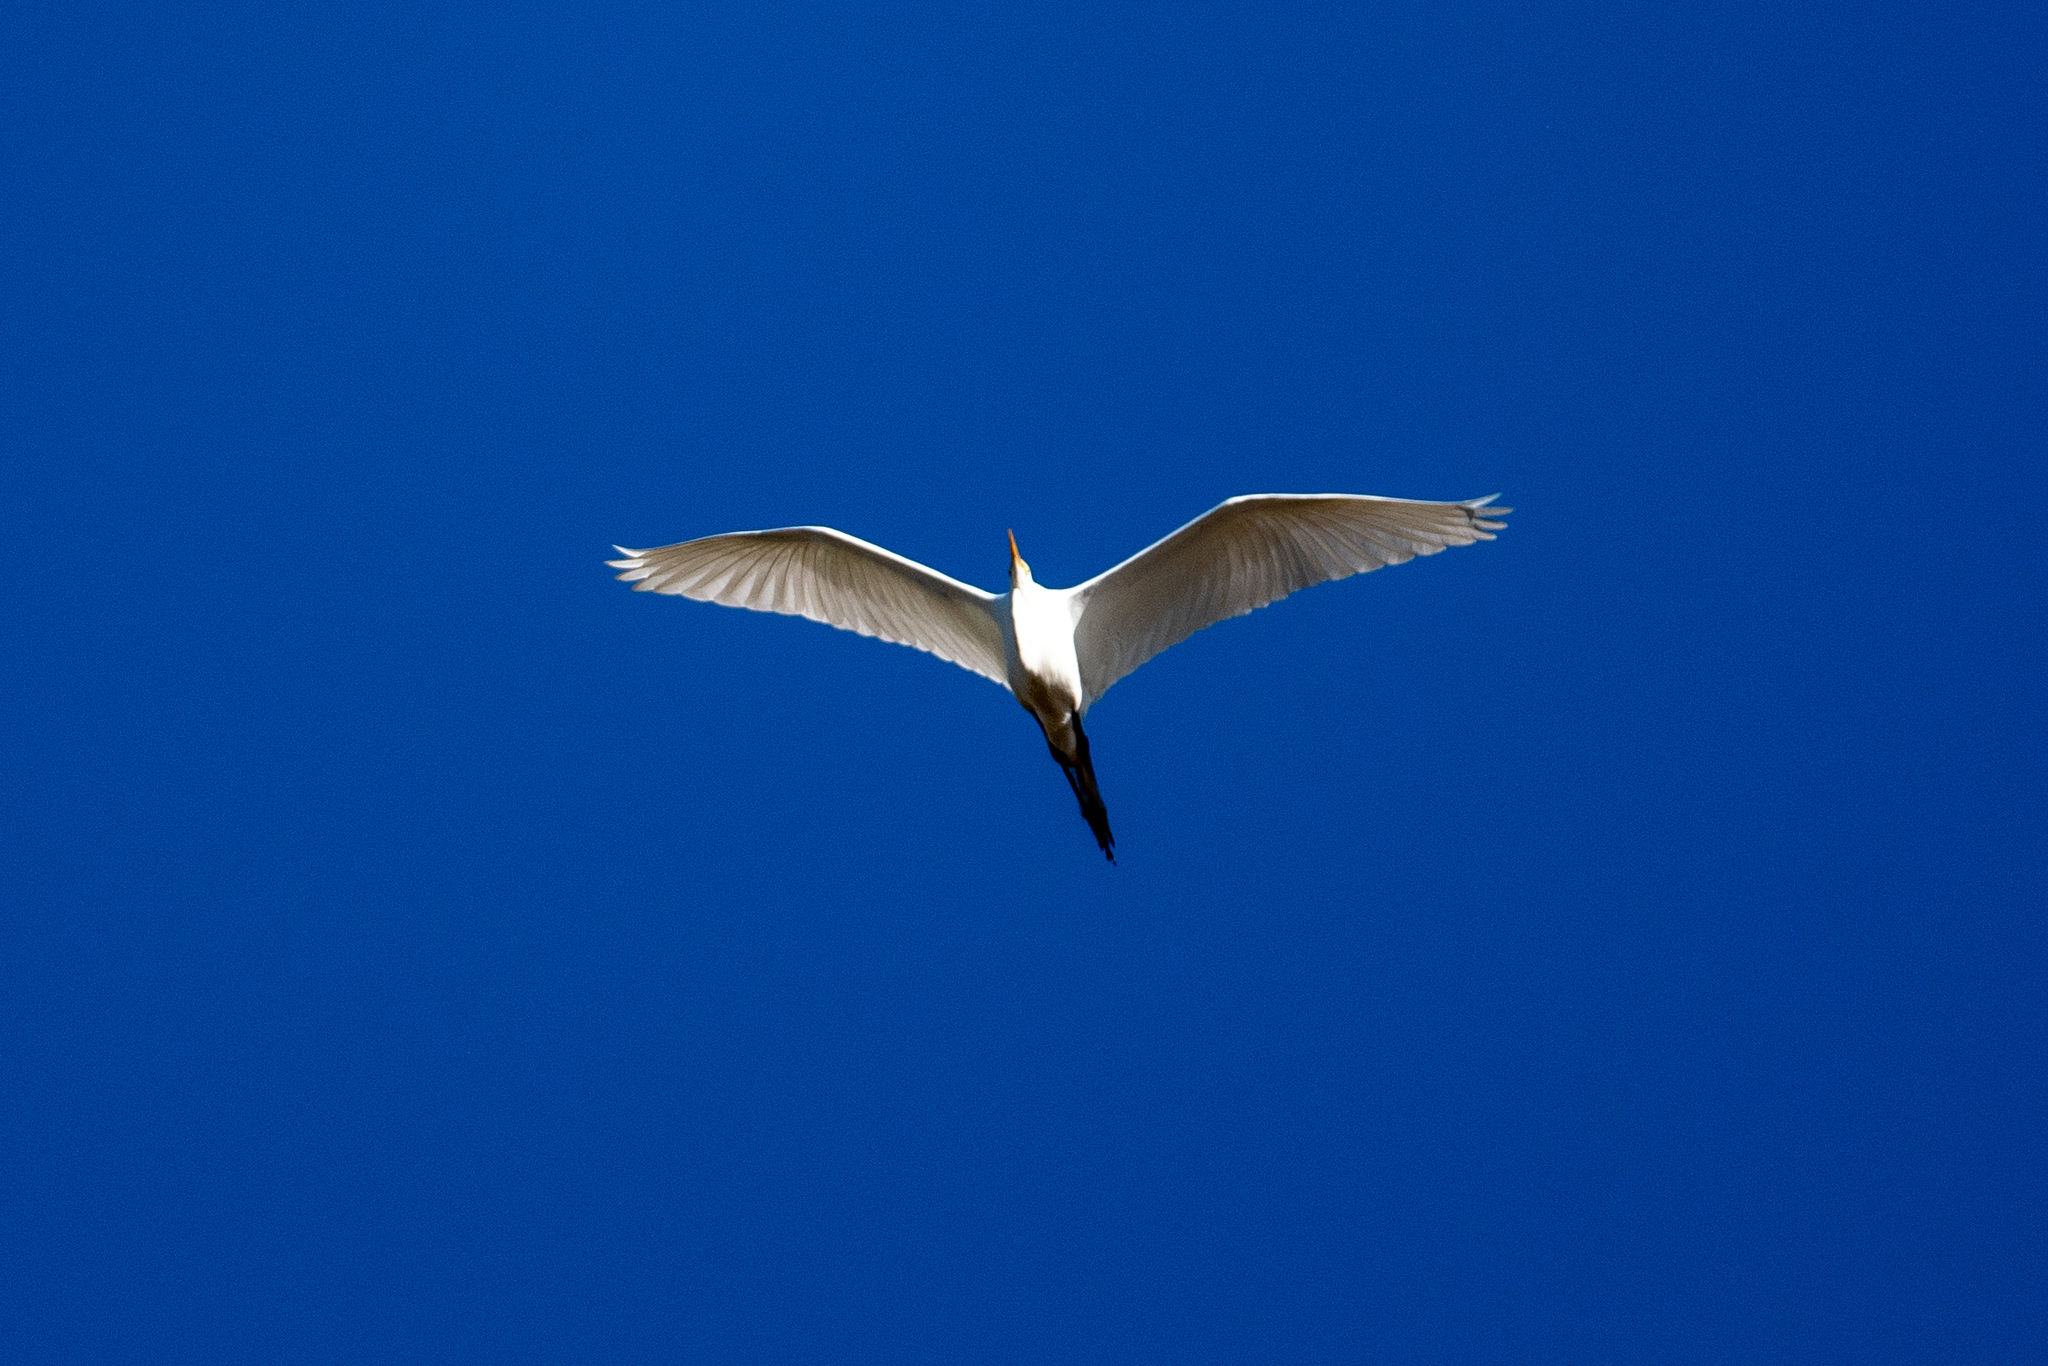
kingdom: Animalia
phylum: Chordata
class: Aves
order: Pelecaniformes
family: Ardeidae
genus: Ardea
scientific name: Ardea alba
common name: Great egret
